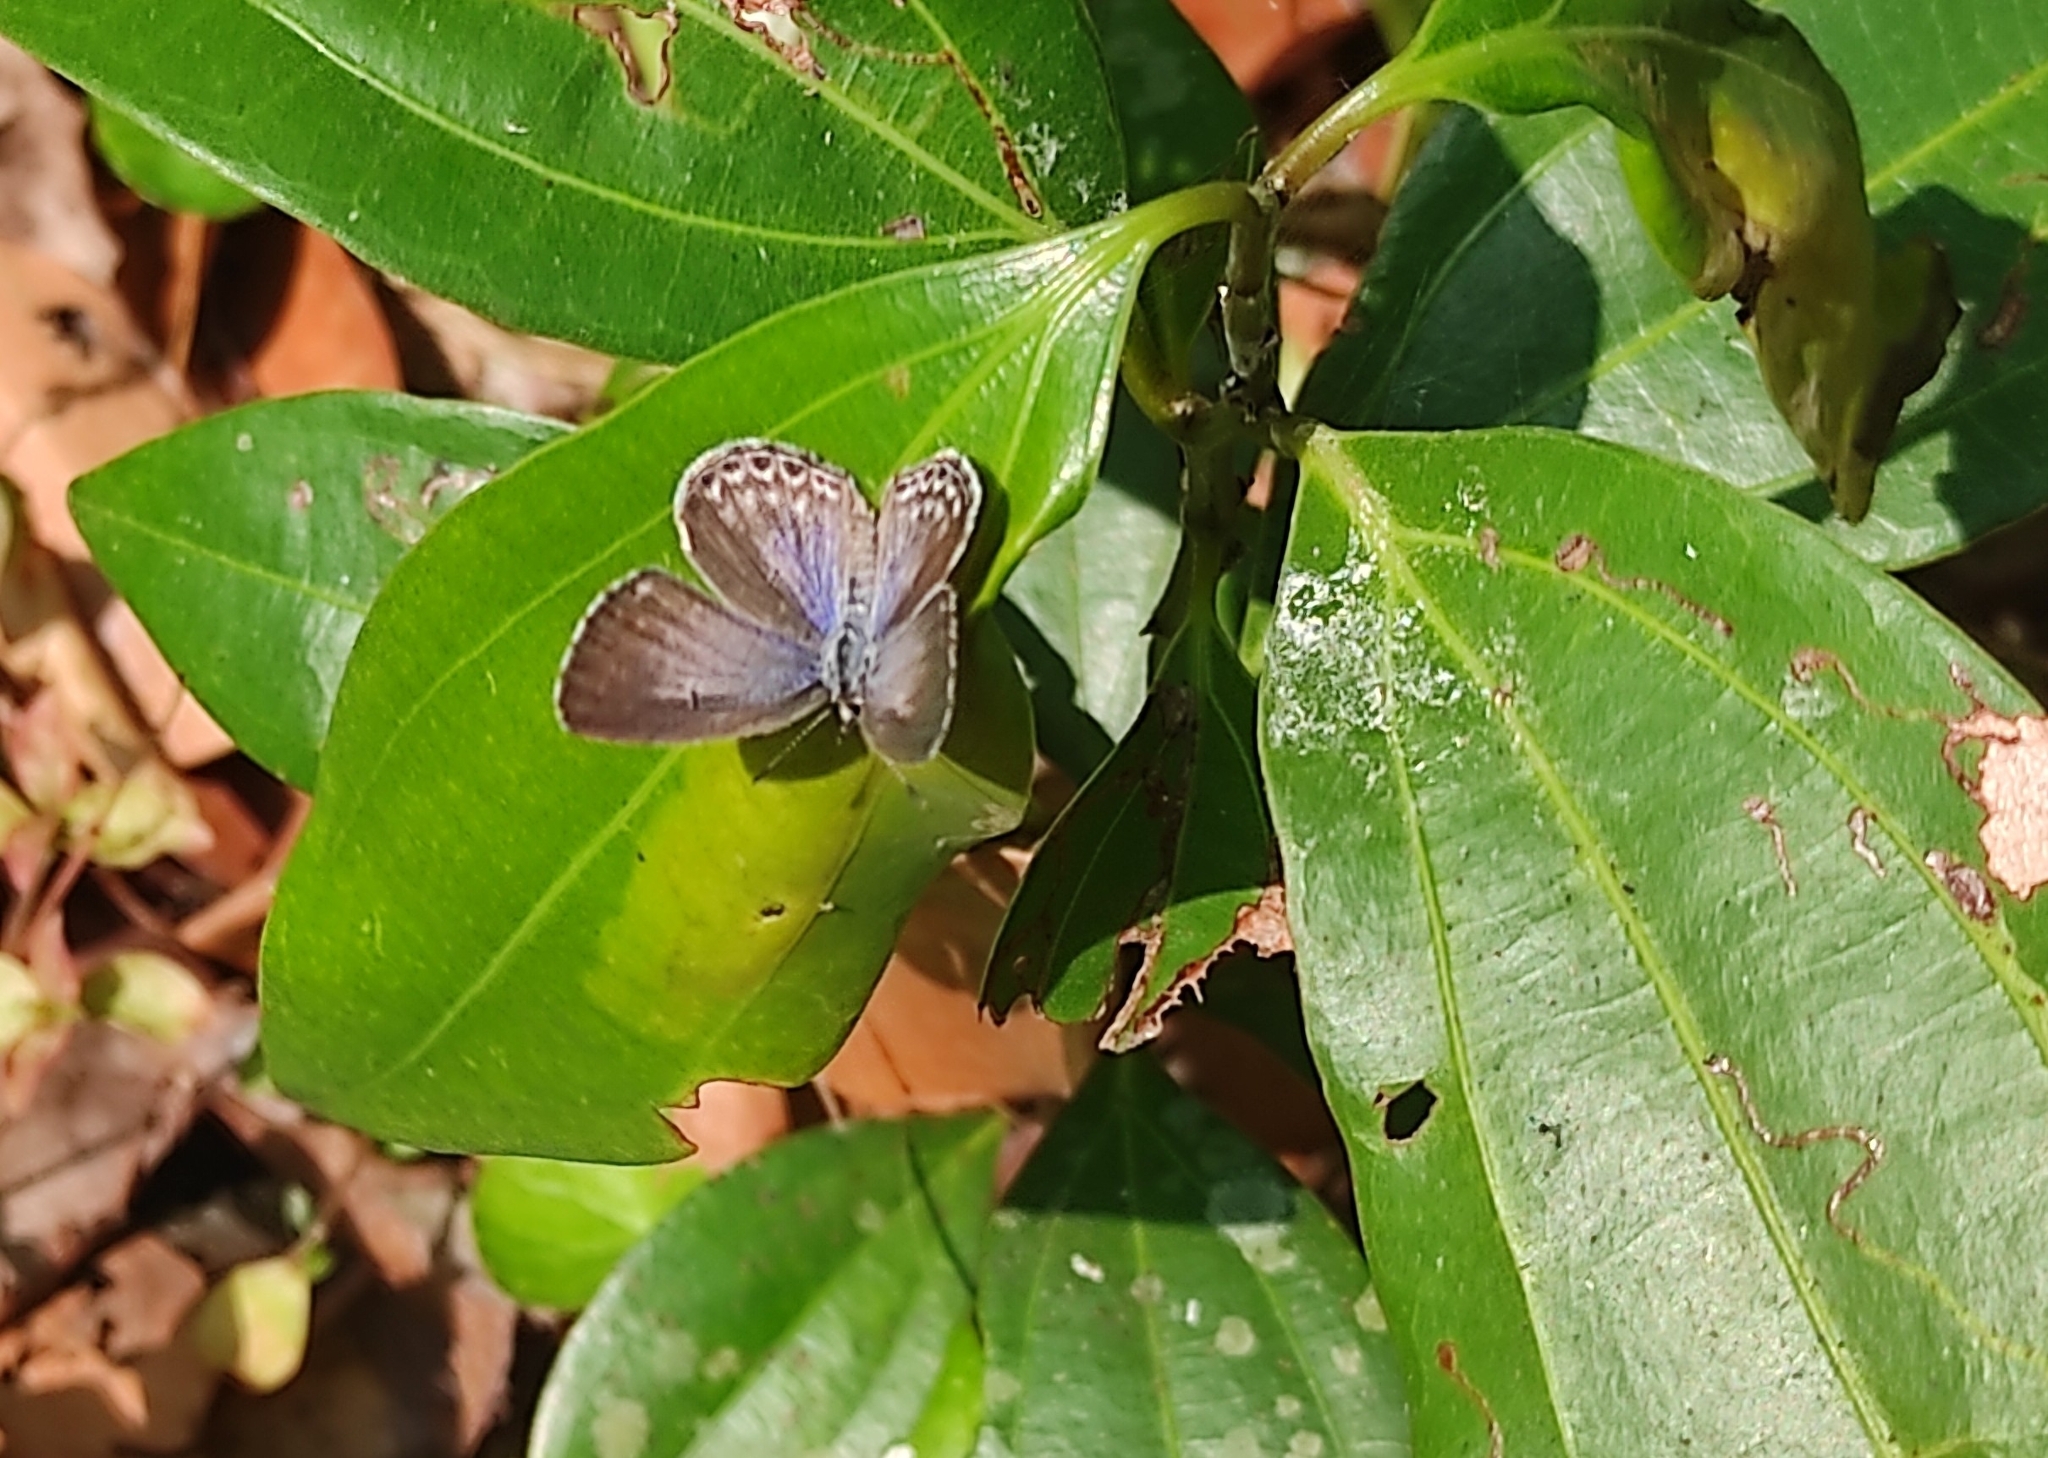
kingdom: Animalia
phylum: Arthropoda
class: Insecta
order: Lepidoptera
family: Lycaenidae
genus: Chilades
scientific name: Chilades laius
